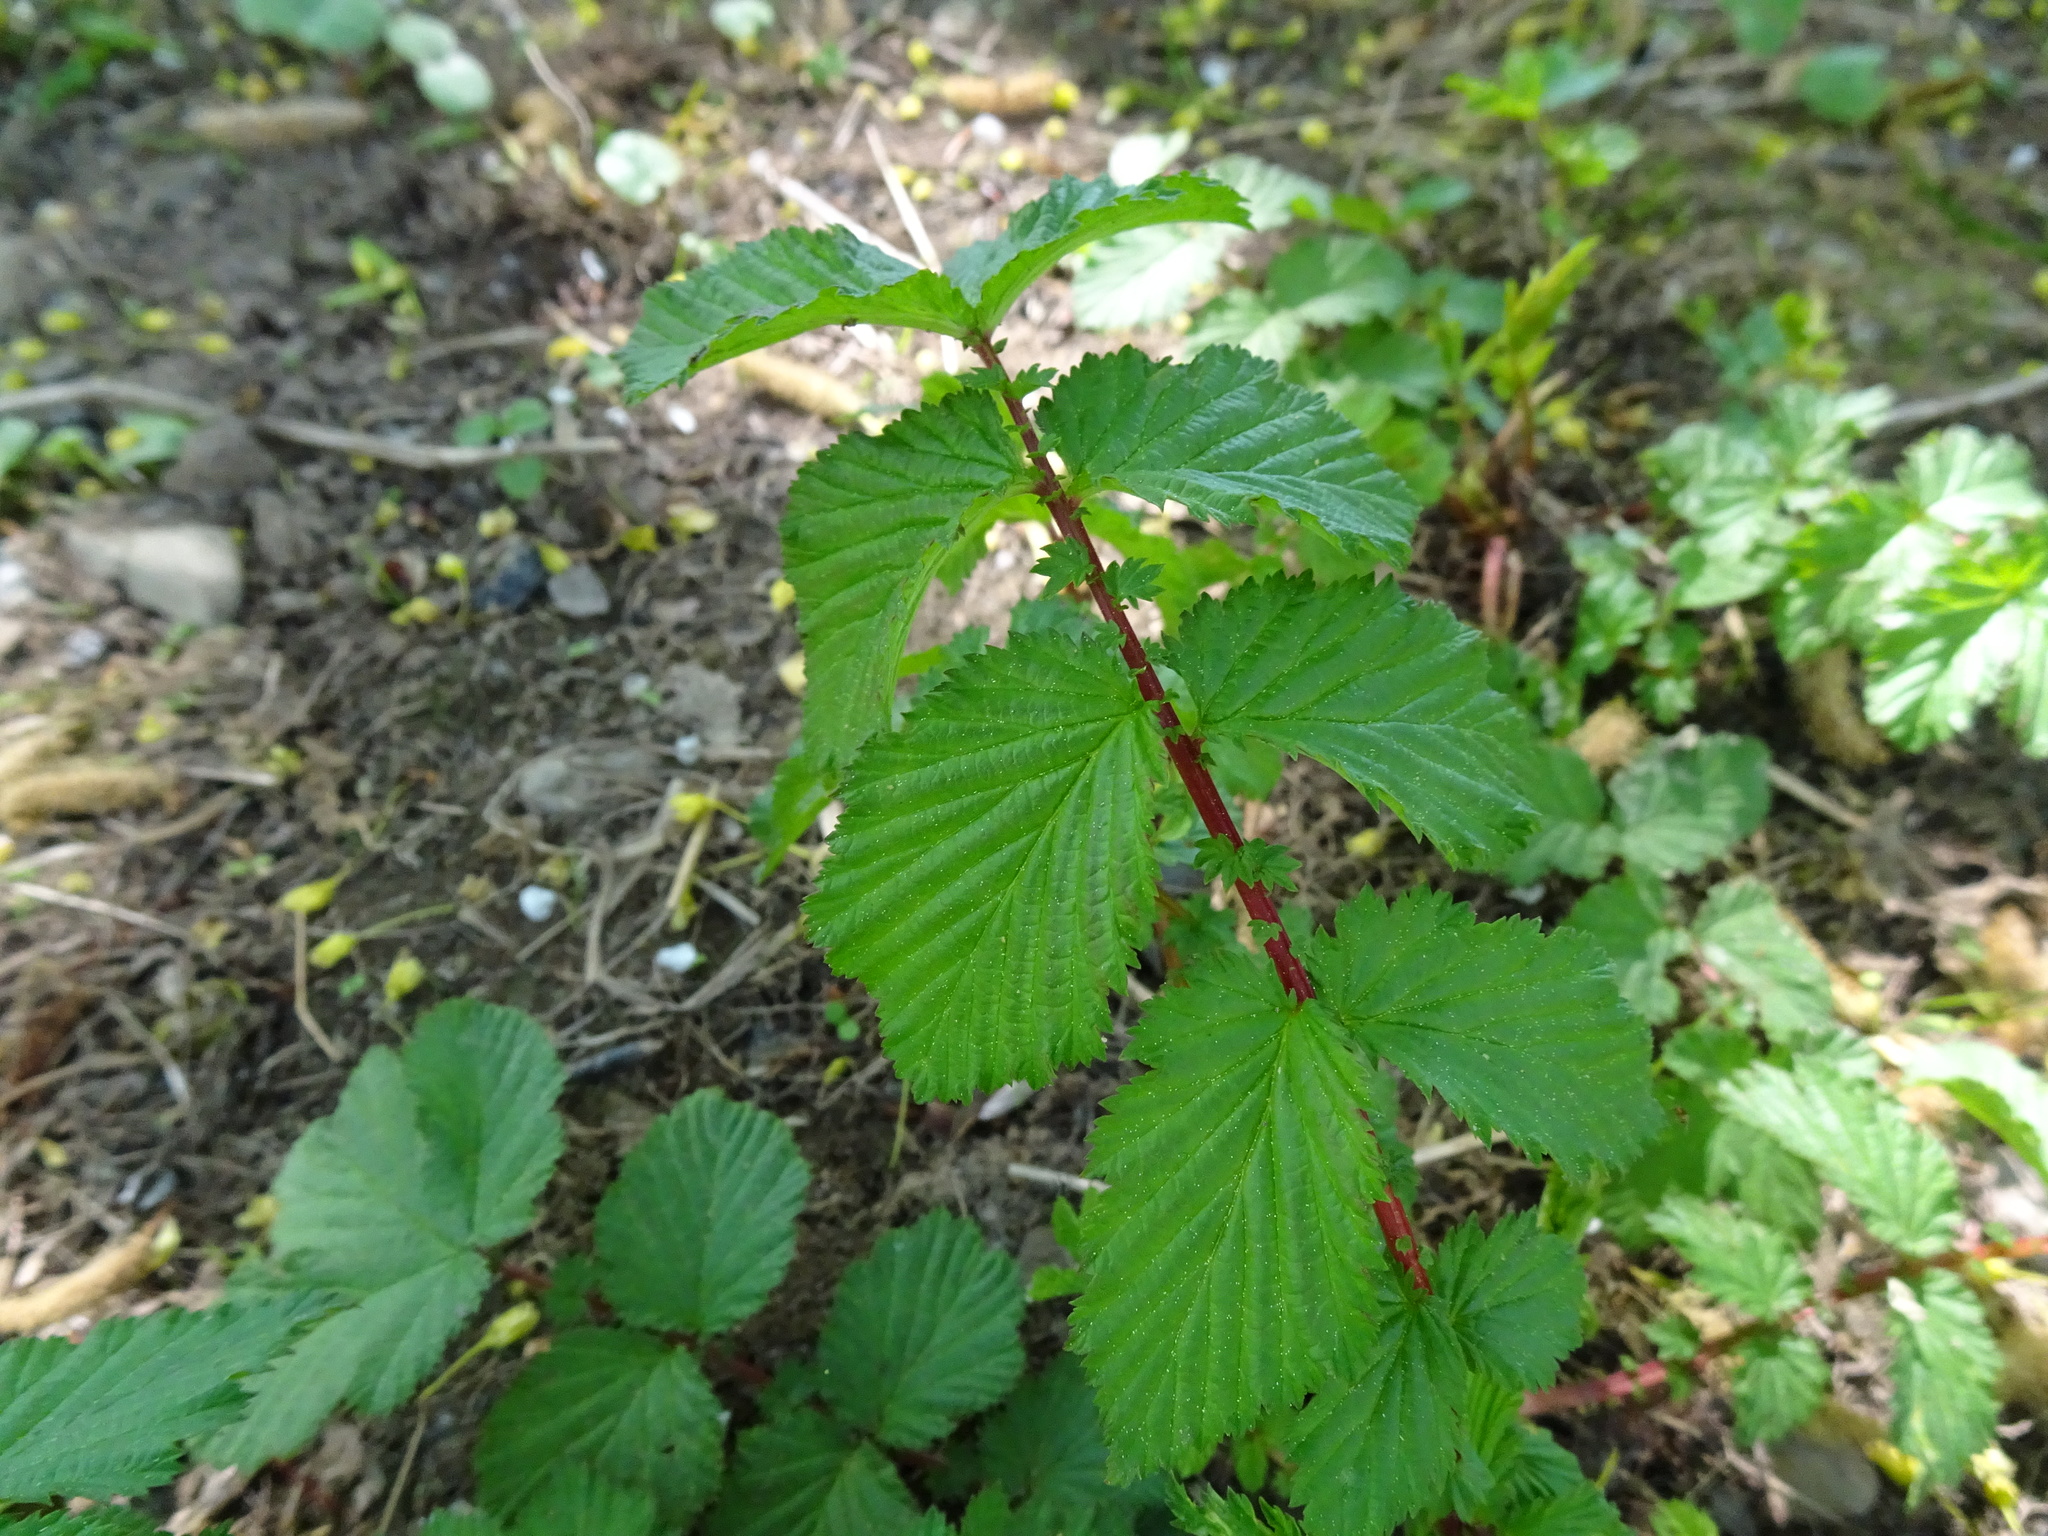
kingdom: Plantae
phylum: Tracheophyta
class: Magnoliopsida
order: Rosales
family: Rosaceae
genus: Filipendula
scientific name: Filipendula ulmaria
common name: Meadowsweet
